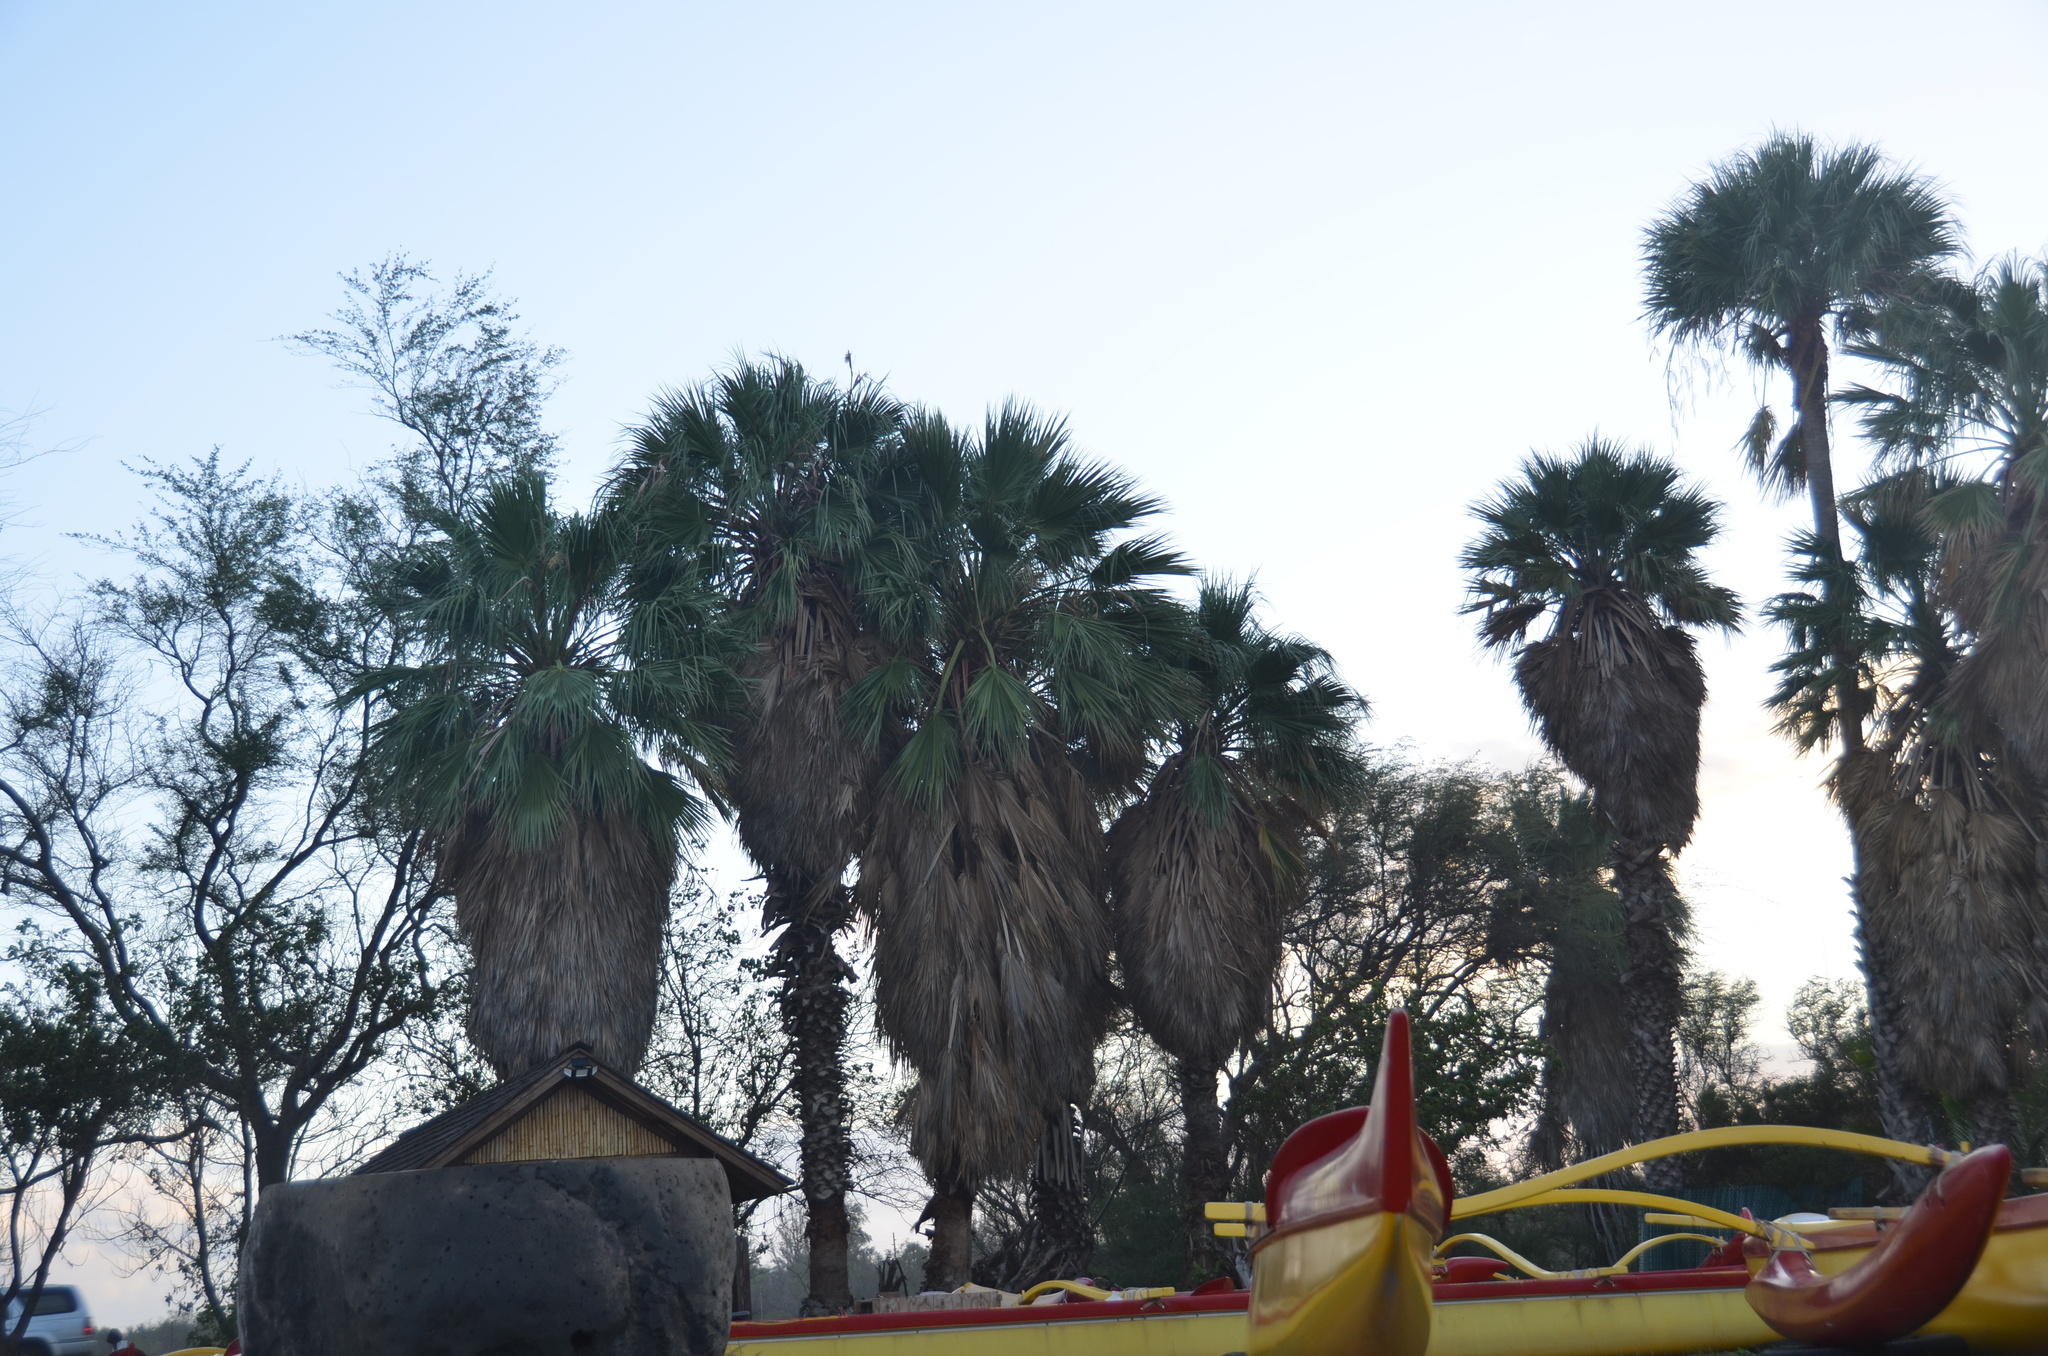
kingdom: Plantae
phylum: Tracheophyta
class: Liliopsida
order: Arecales
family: Arecaceae
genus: Washingtonia
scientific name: Washingtonia robusta
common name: Mexican fan palm
